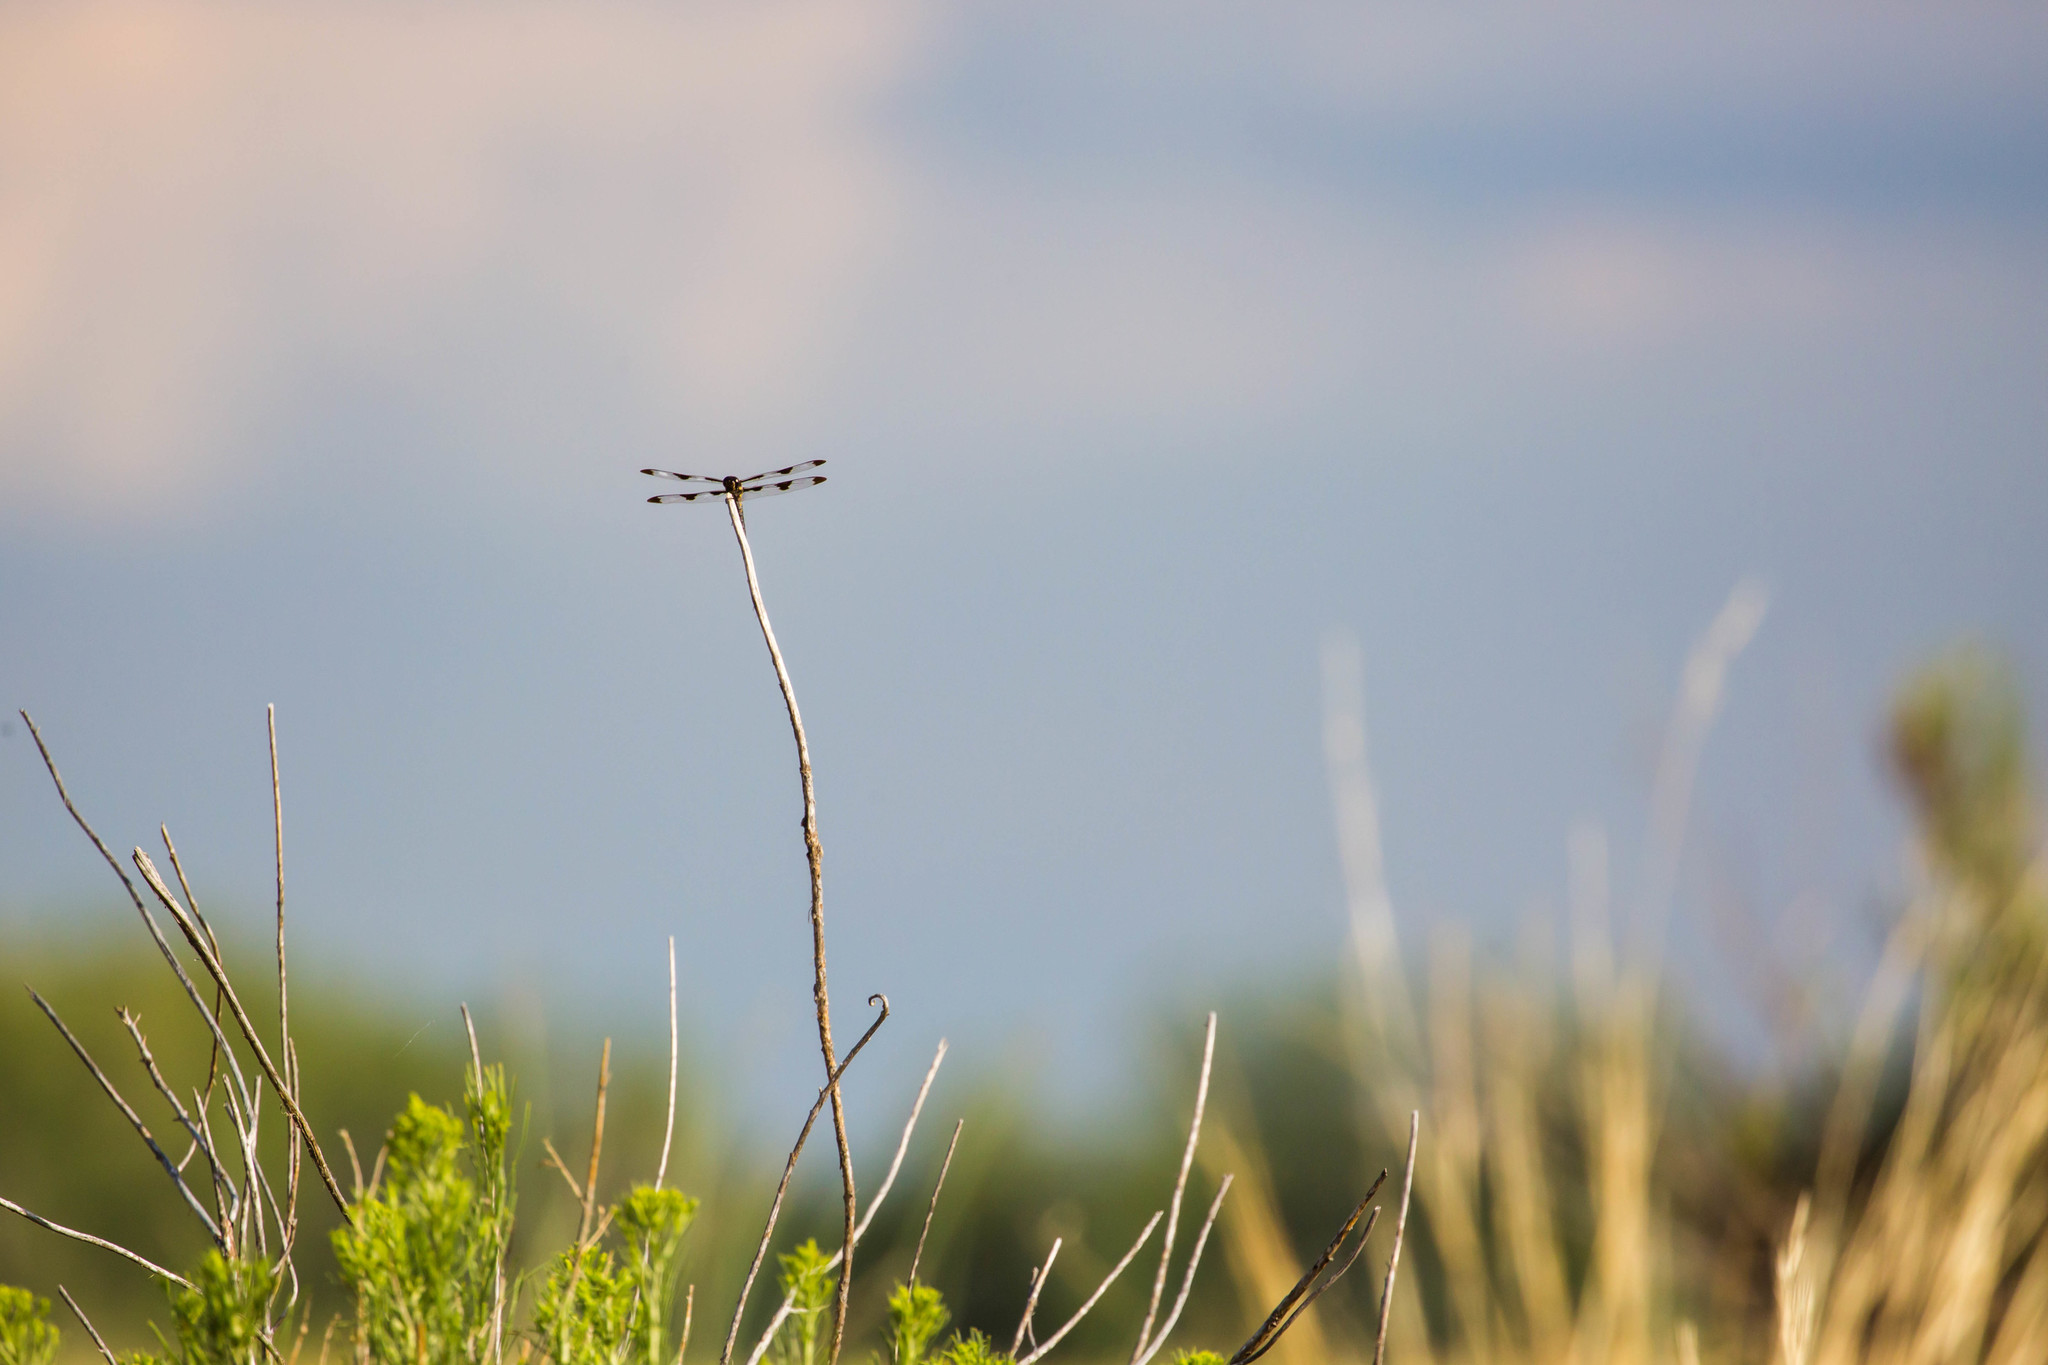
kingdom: Animalia
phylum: Arthropoda
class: Insecta
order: Odonata
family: Libellulidae
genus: Libellula
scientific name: Libellula pulchella
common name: Twelve-spotted skimmer
